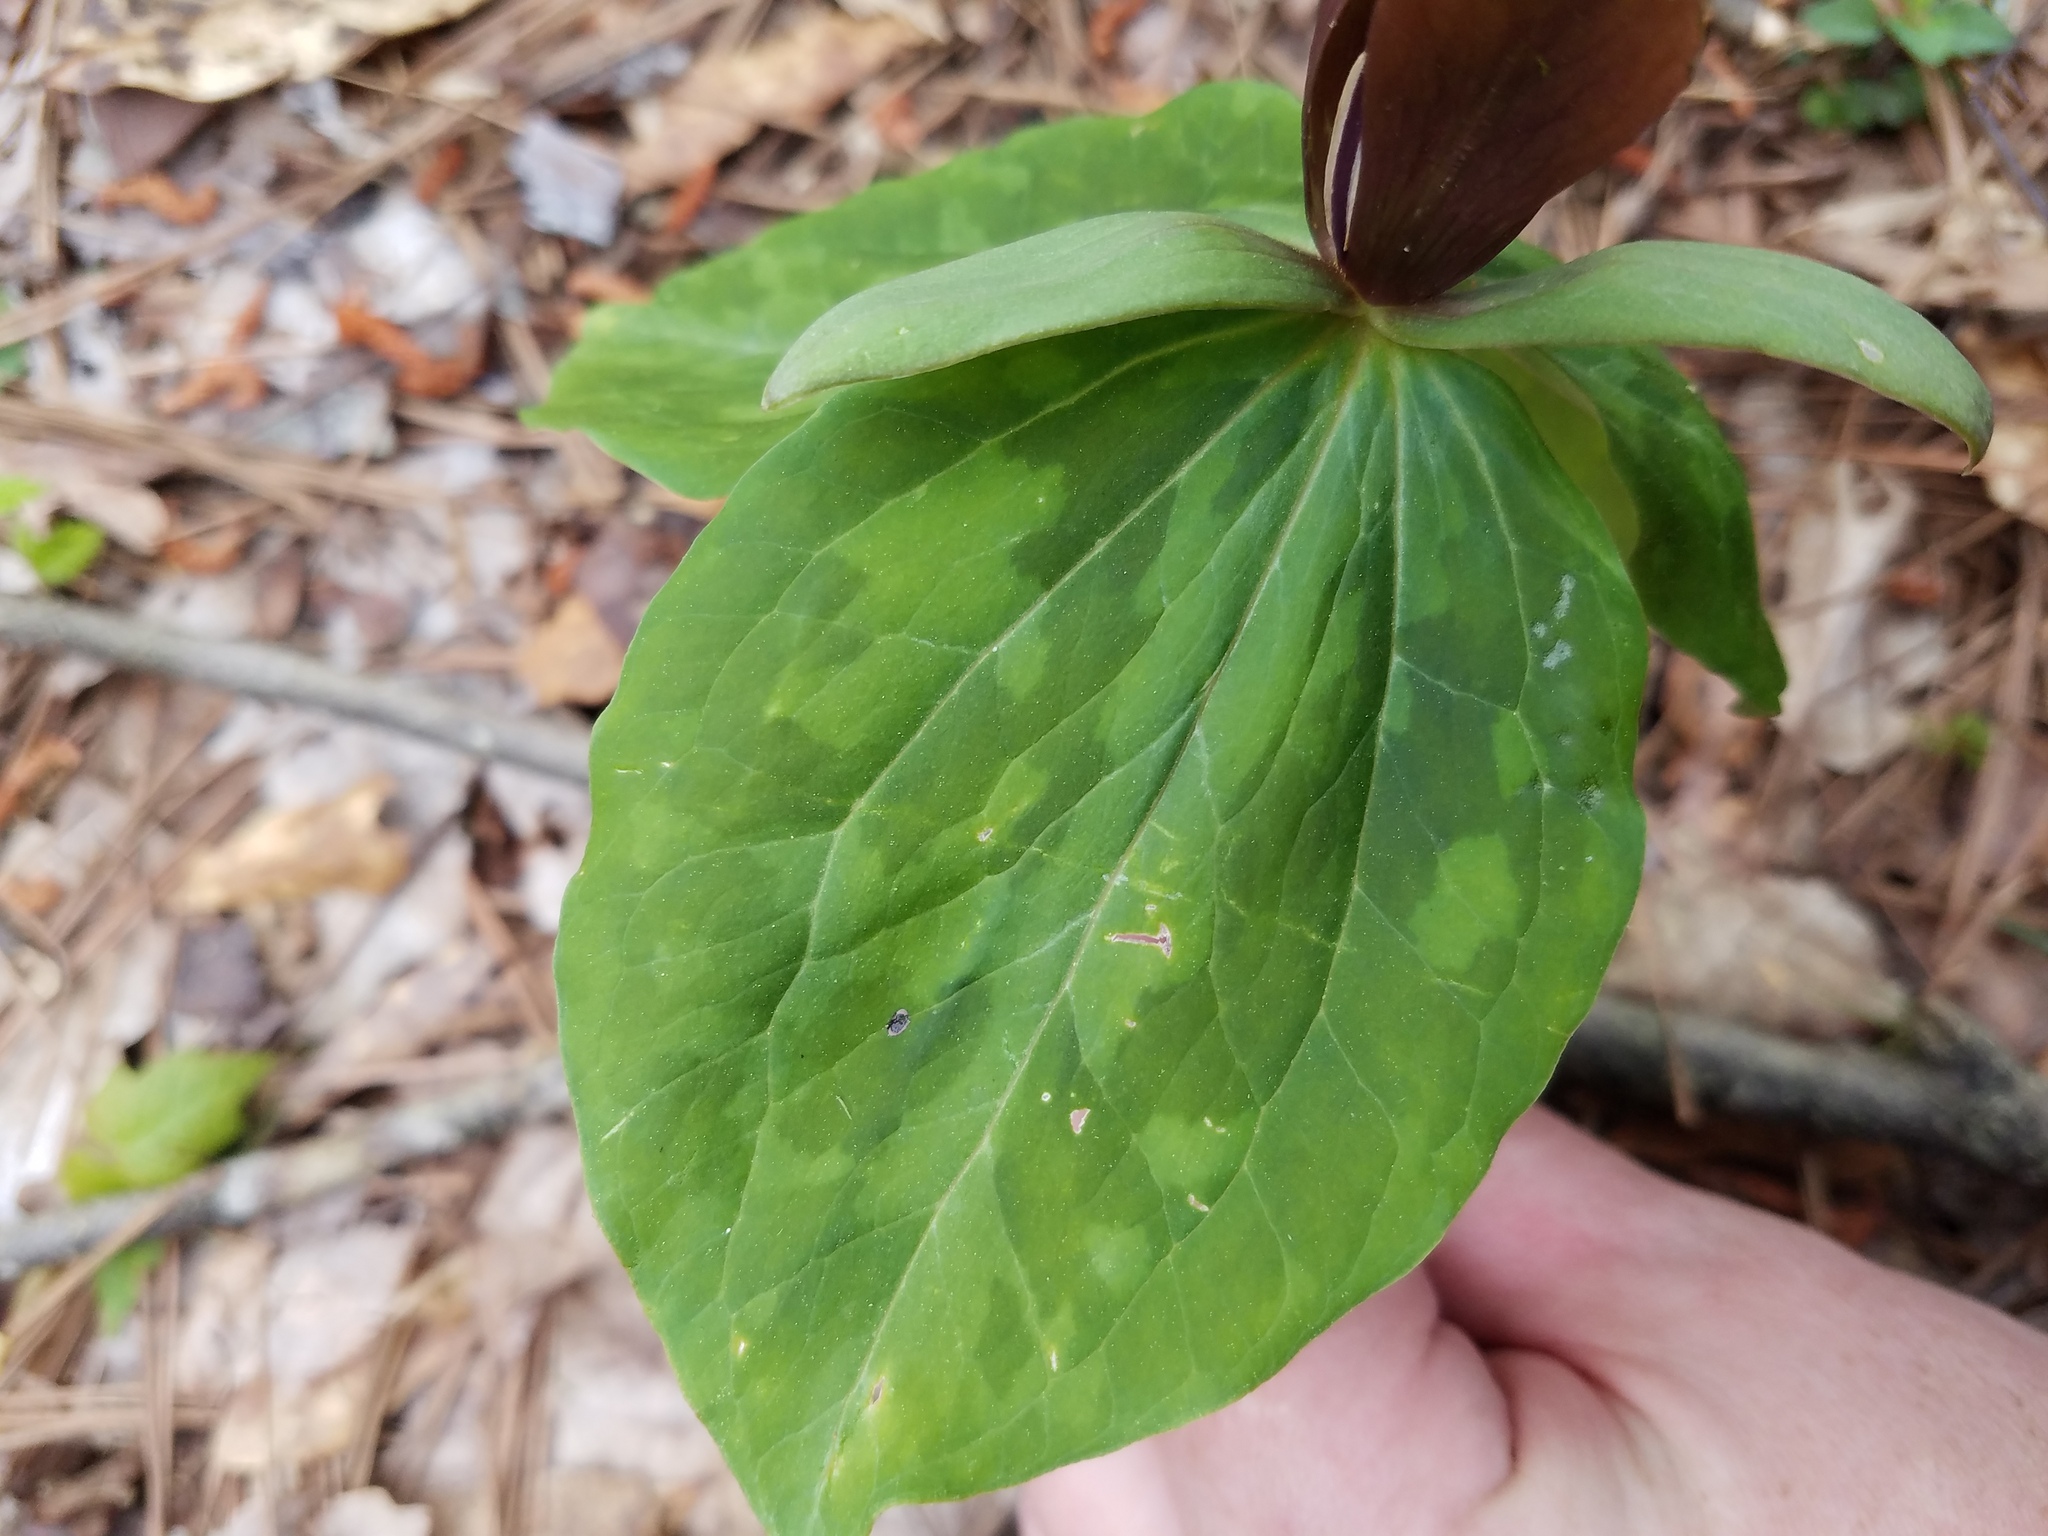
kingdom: Plantae
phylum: Tracheophyta
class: Liliopsida
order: Liliales
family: Melanthiaceae
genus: Trillium
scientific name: Trillium cuneatum
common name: Cuneate trillium
